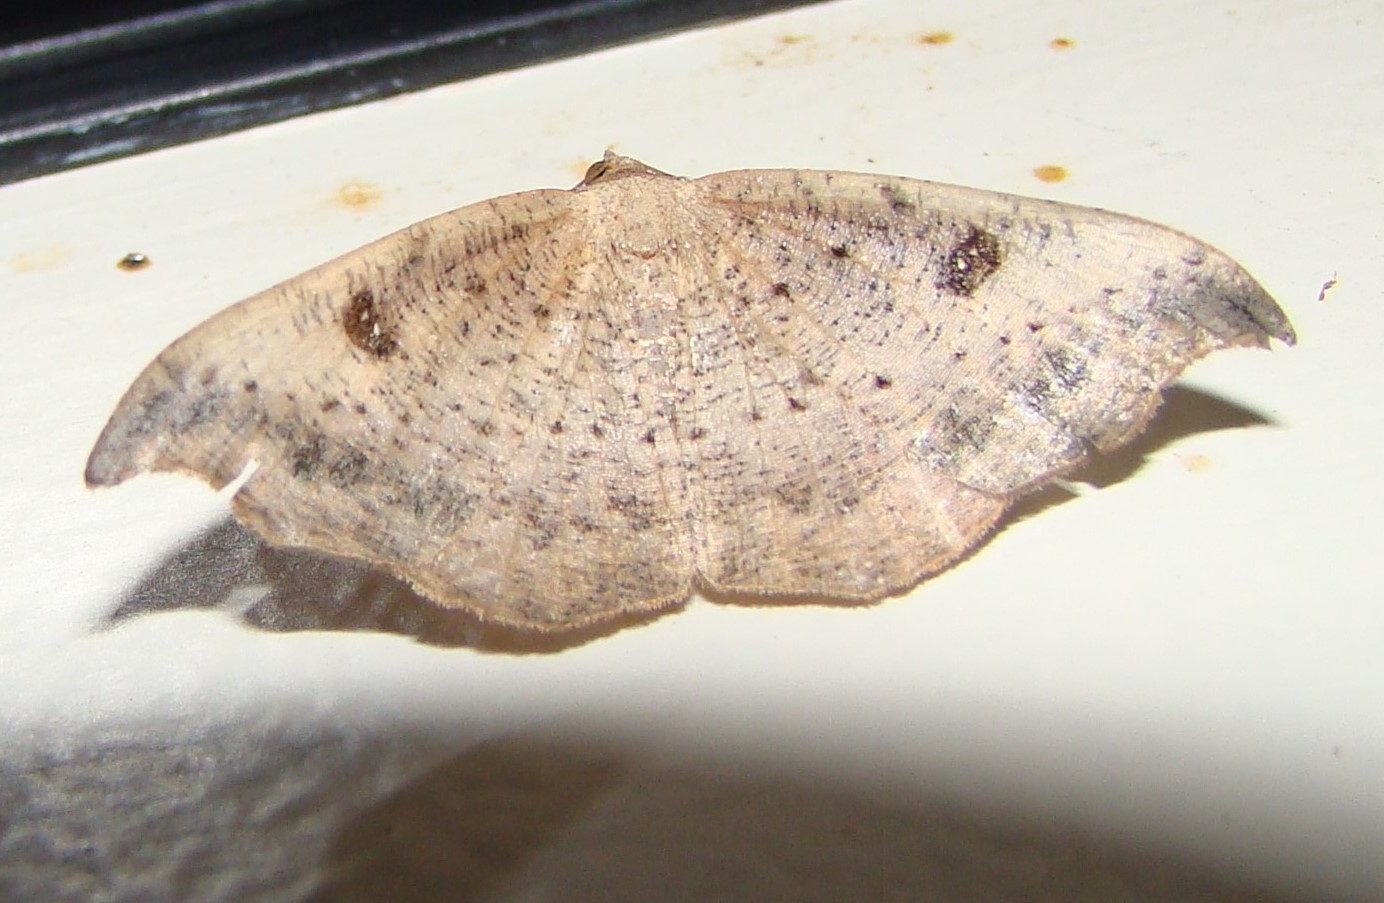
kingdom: Animalia
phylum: Arthropoda
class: Insecta
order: Lepidoptera
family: Geometridae
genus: Sarisa
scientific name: Sarisa muriferata
